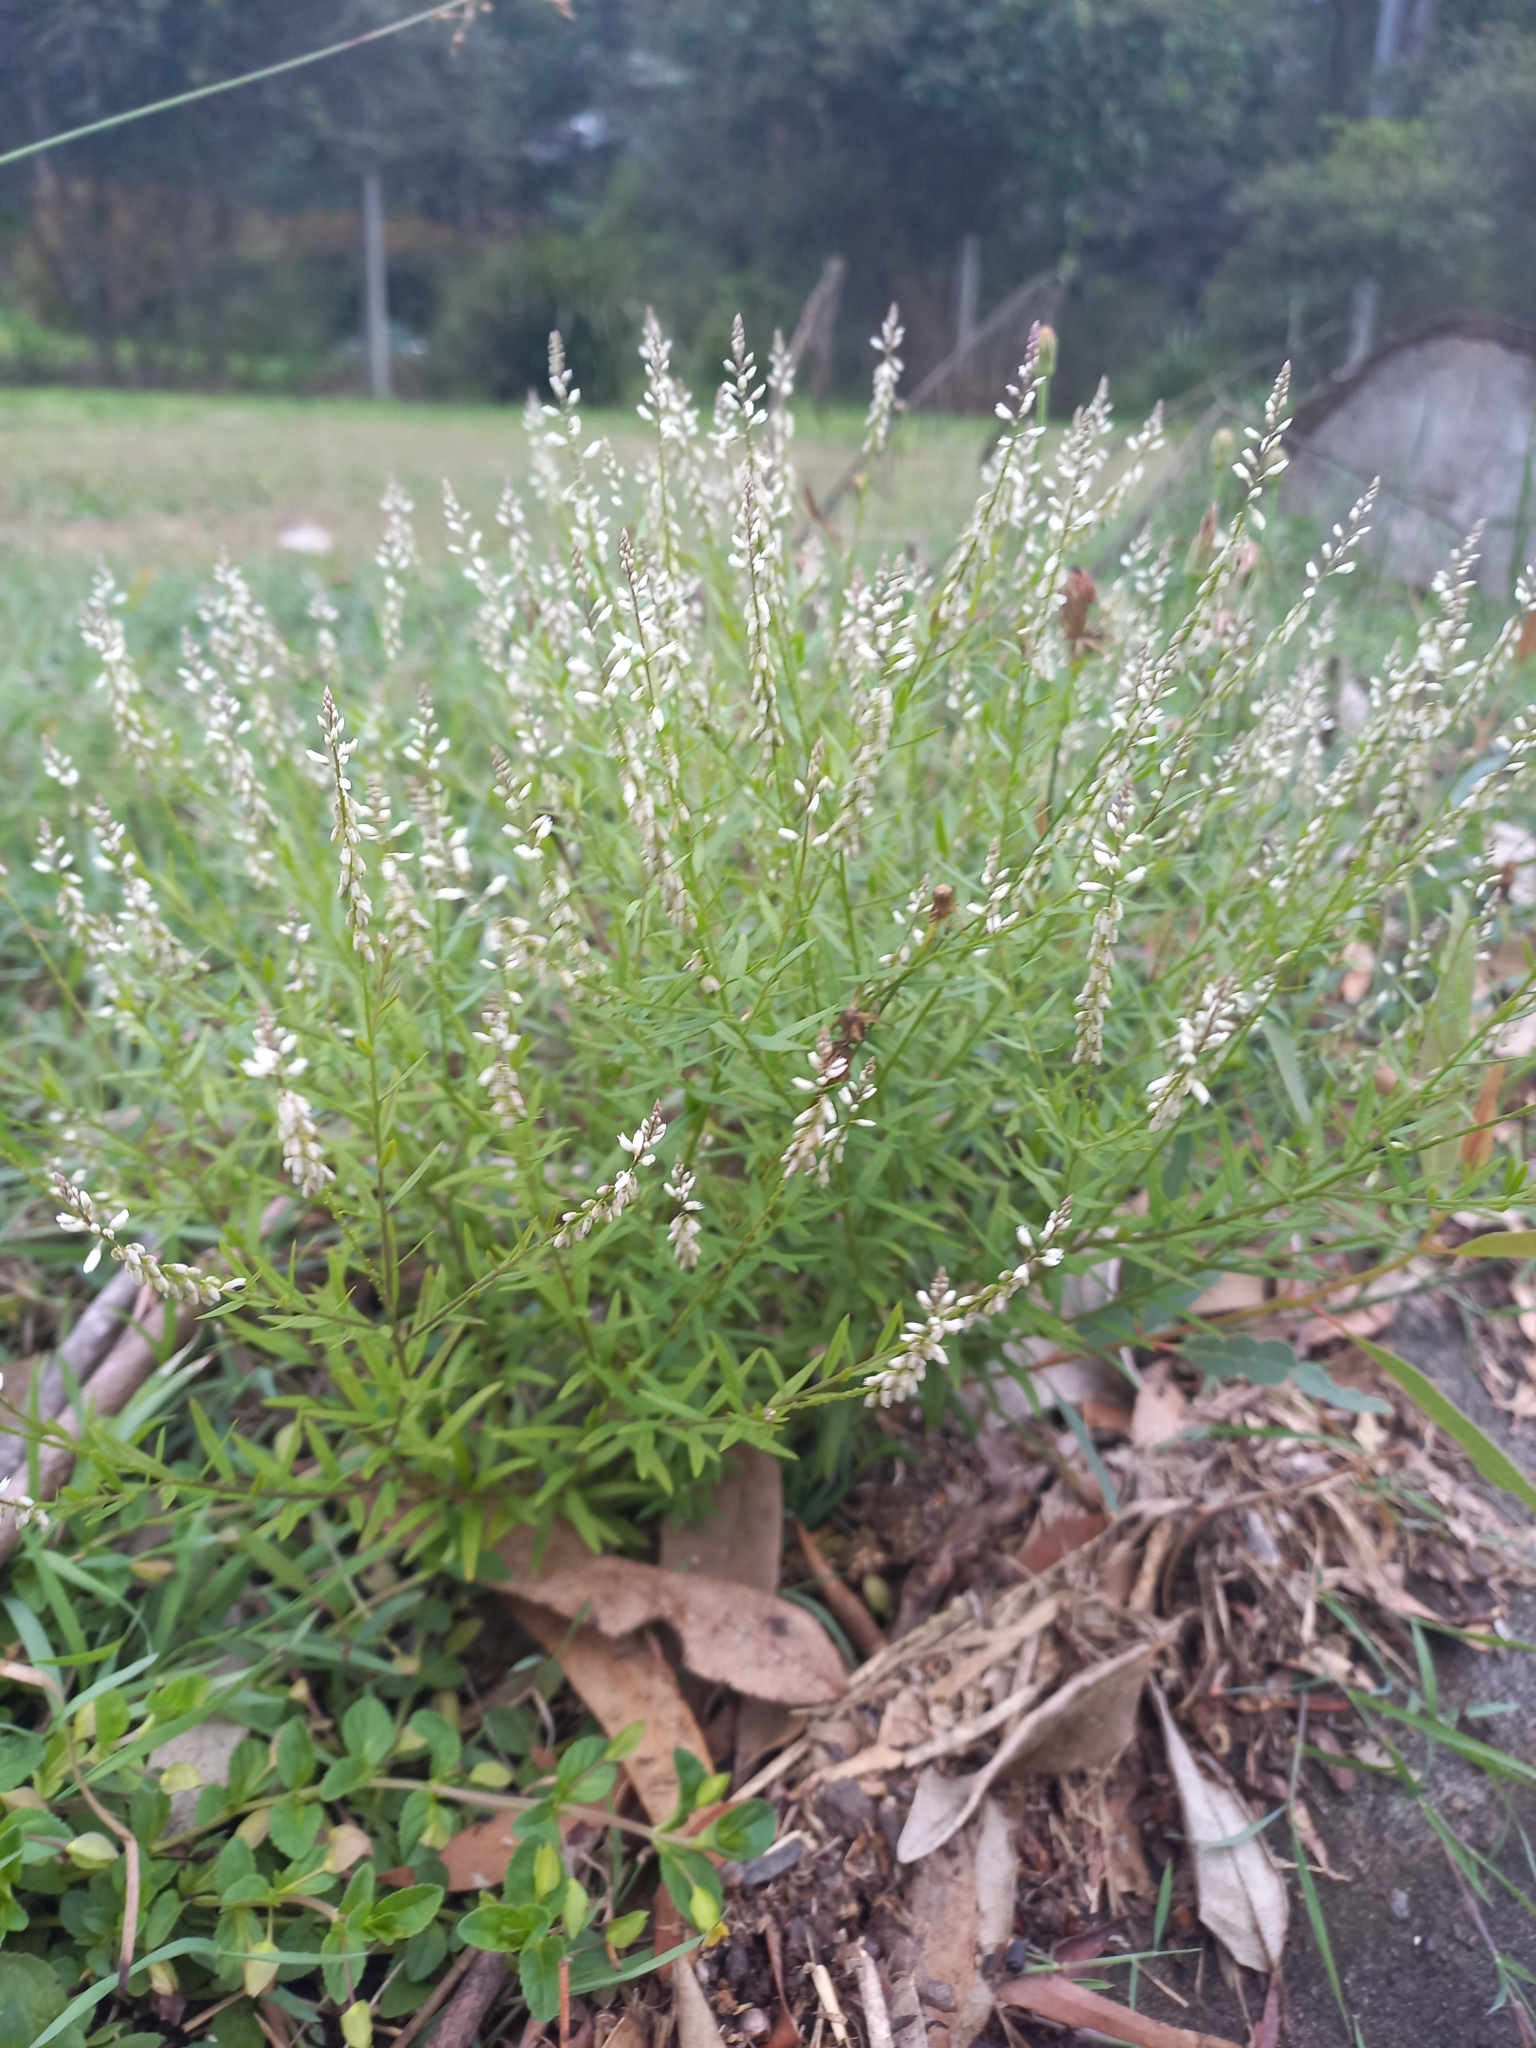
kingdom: Plantae
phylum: Tracheophyta
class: Magnoliopsida
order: Fabales
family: Polygalaceae
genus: Polygala
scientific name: Polygala paniculata
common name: Orosne
